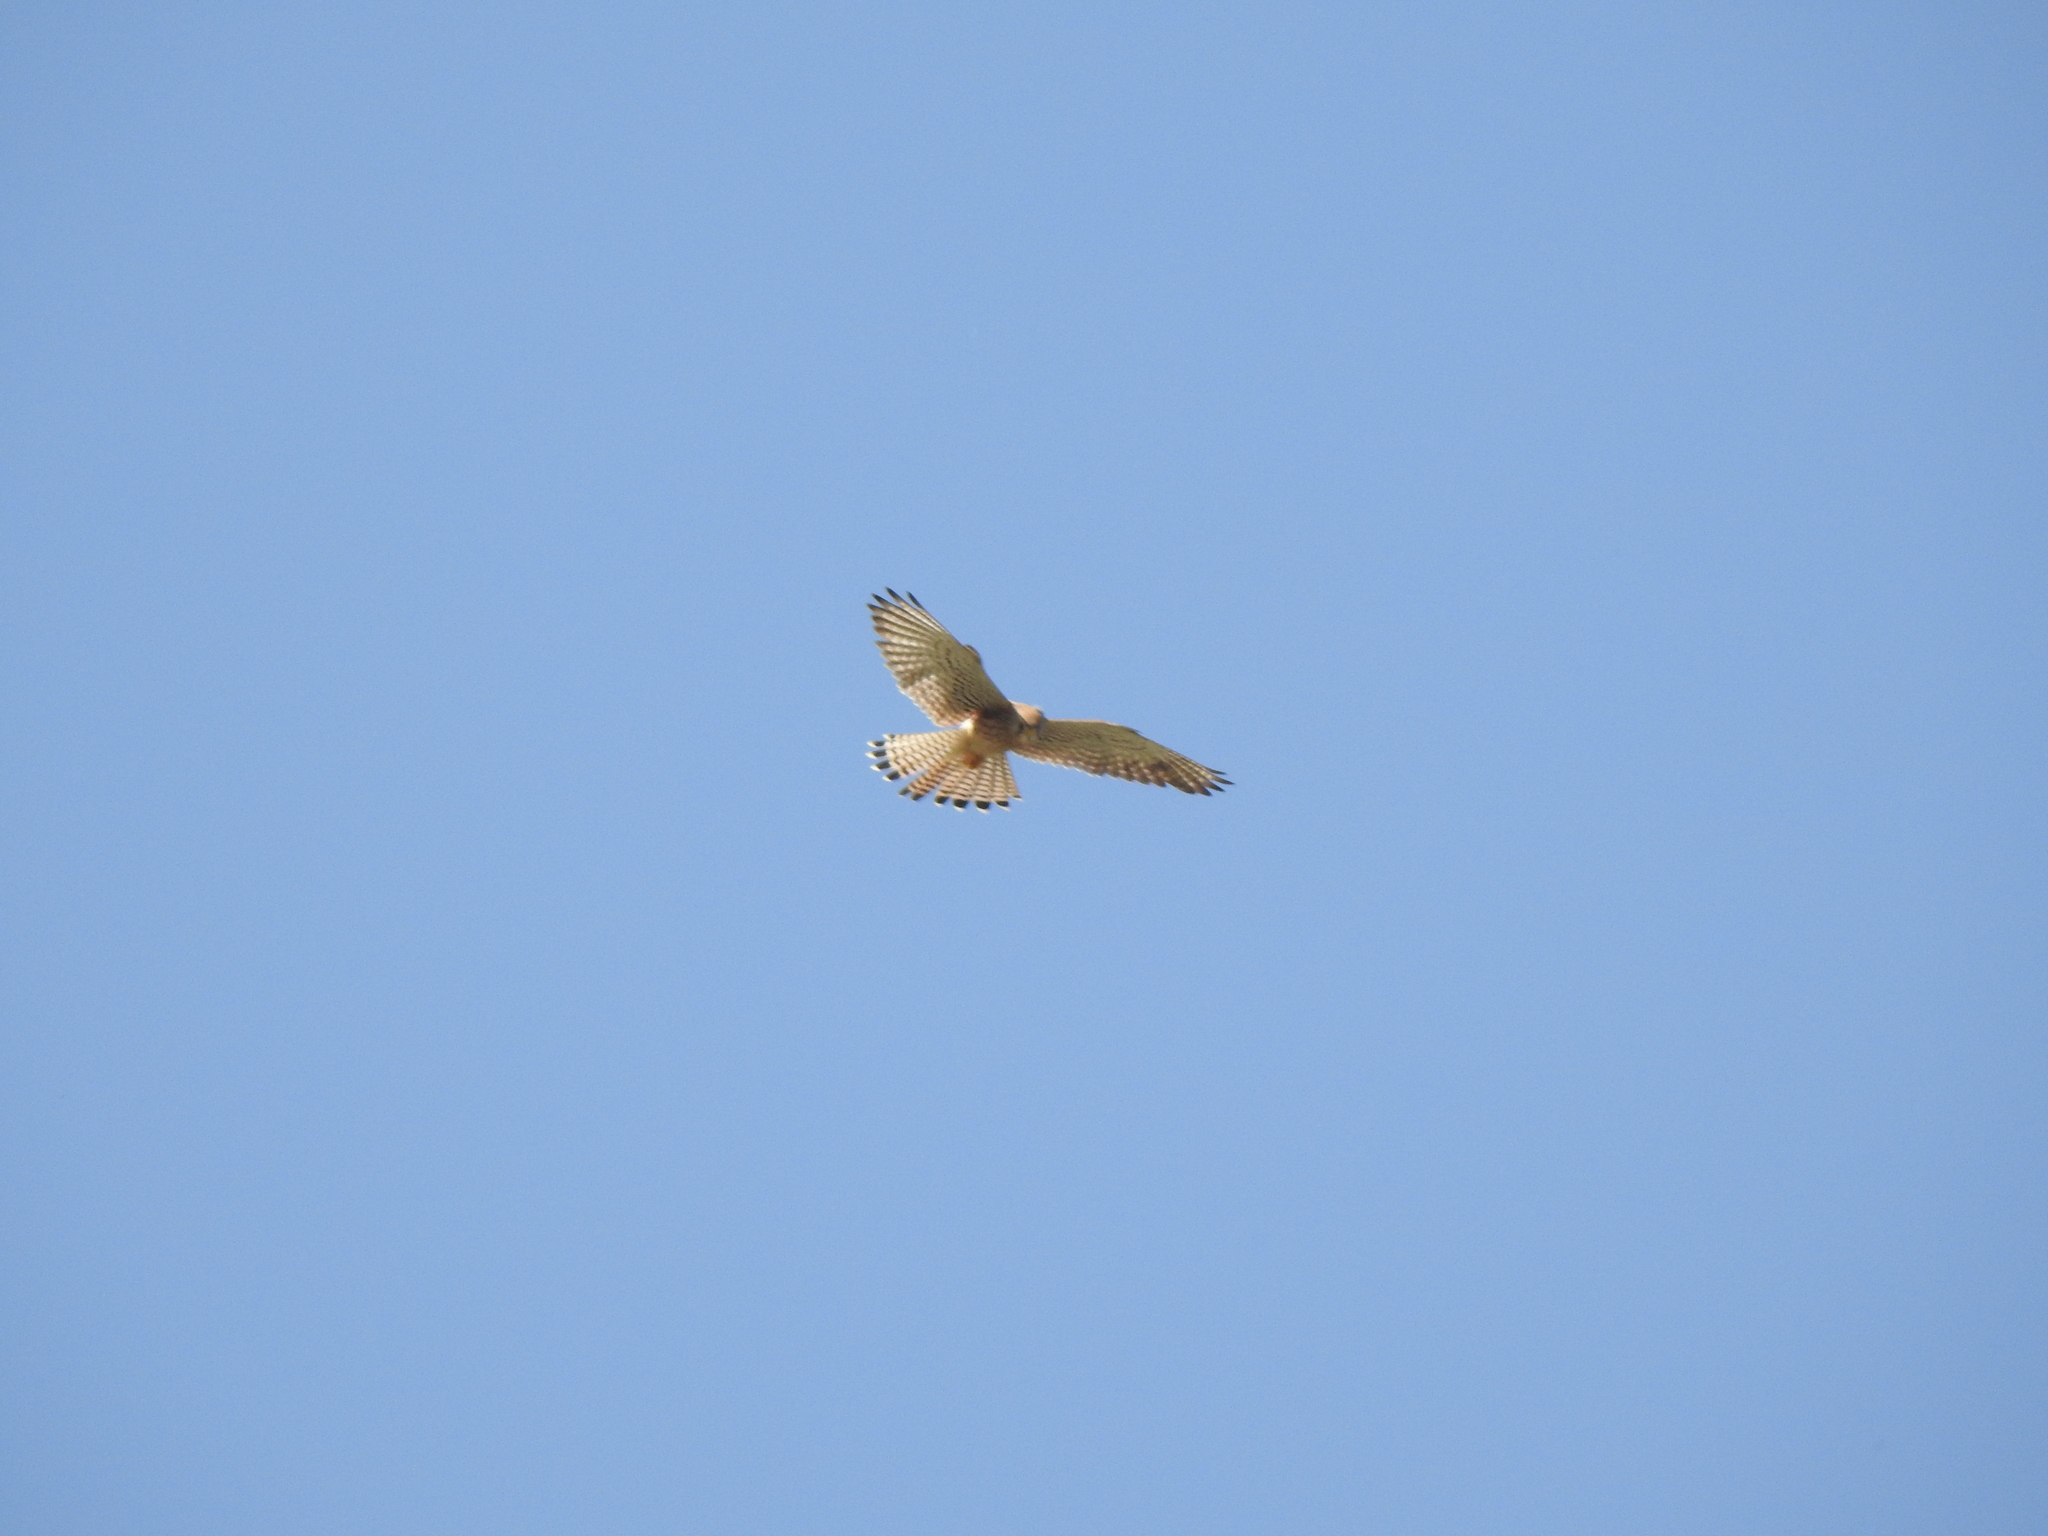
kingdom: Animalia
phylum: Chordata
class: Aves
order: Falconiformes
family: Falconidae
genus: Falco
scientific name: Falco tinnunculus
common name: Common kestrel
